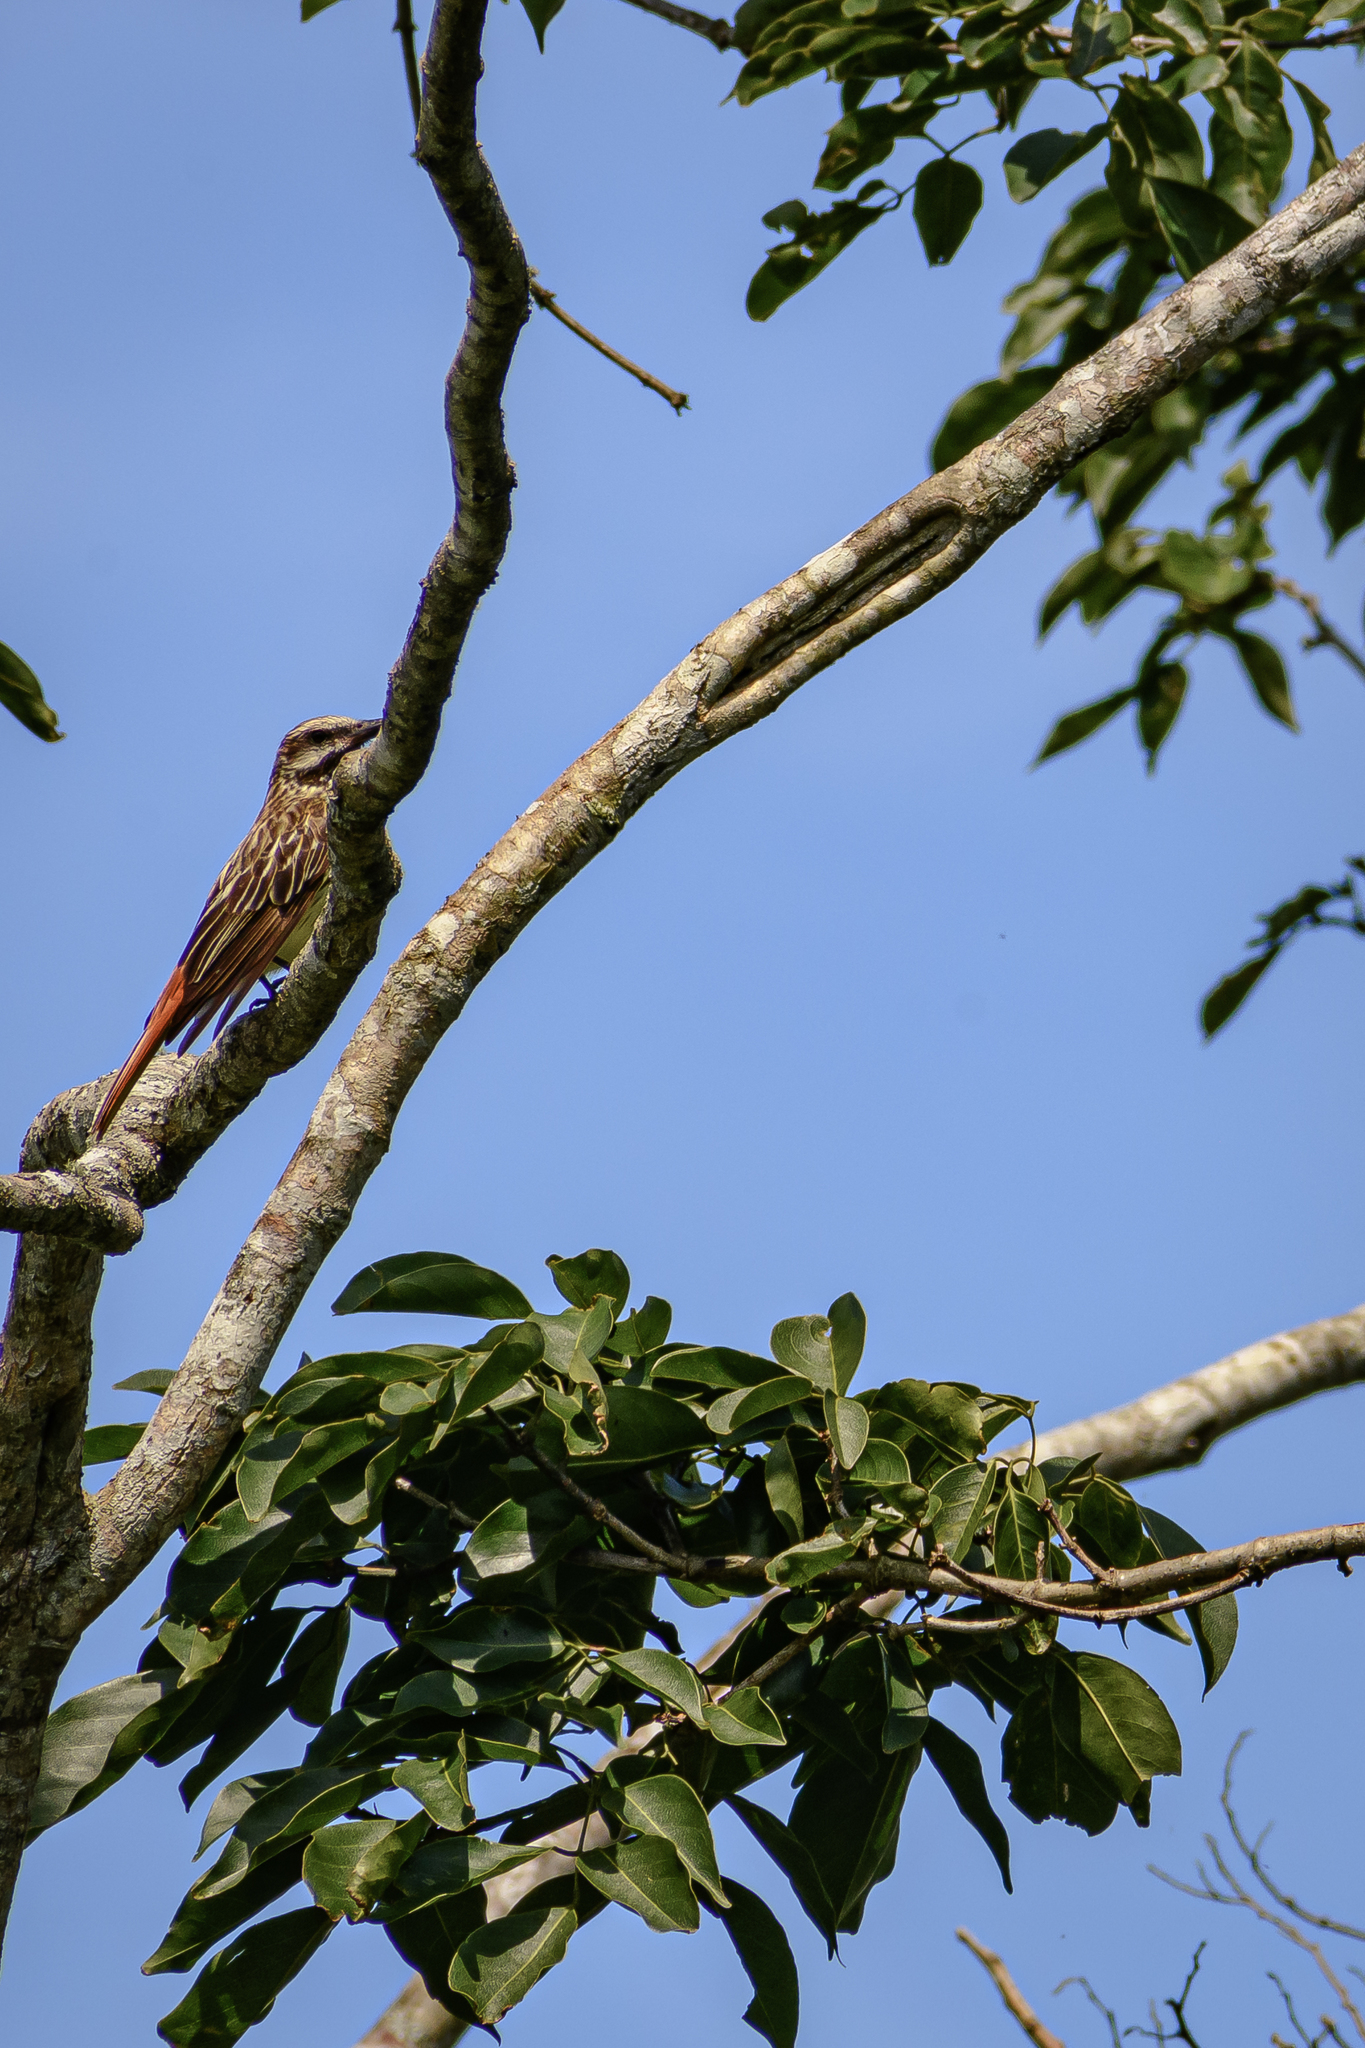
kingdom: Animalia
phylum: Chordata
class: Aves
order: Passeriformes
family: Tyrannidae
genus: Myiodynastes
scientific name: Myiodynastes luteiventris
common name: Sulphur-bellied flycatcher
